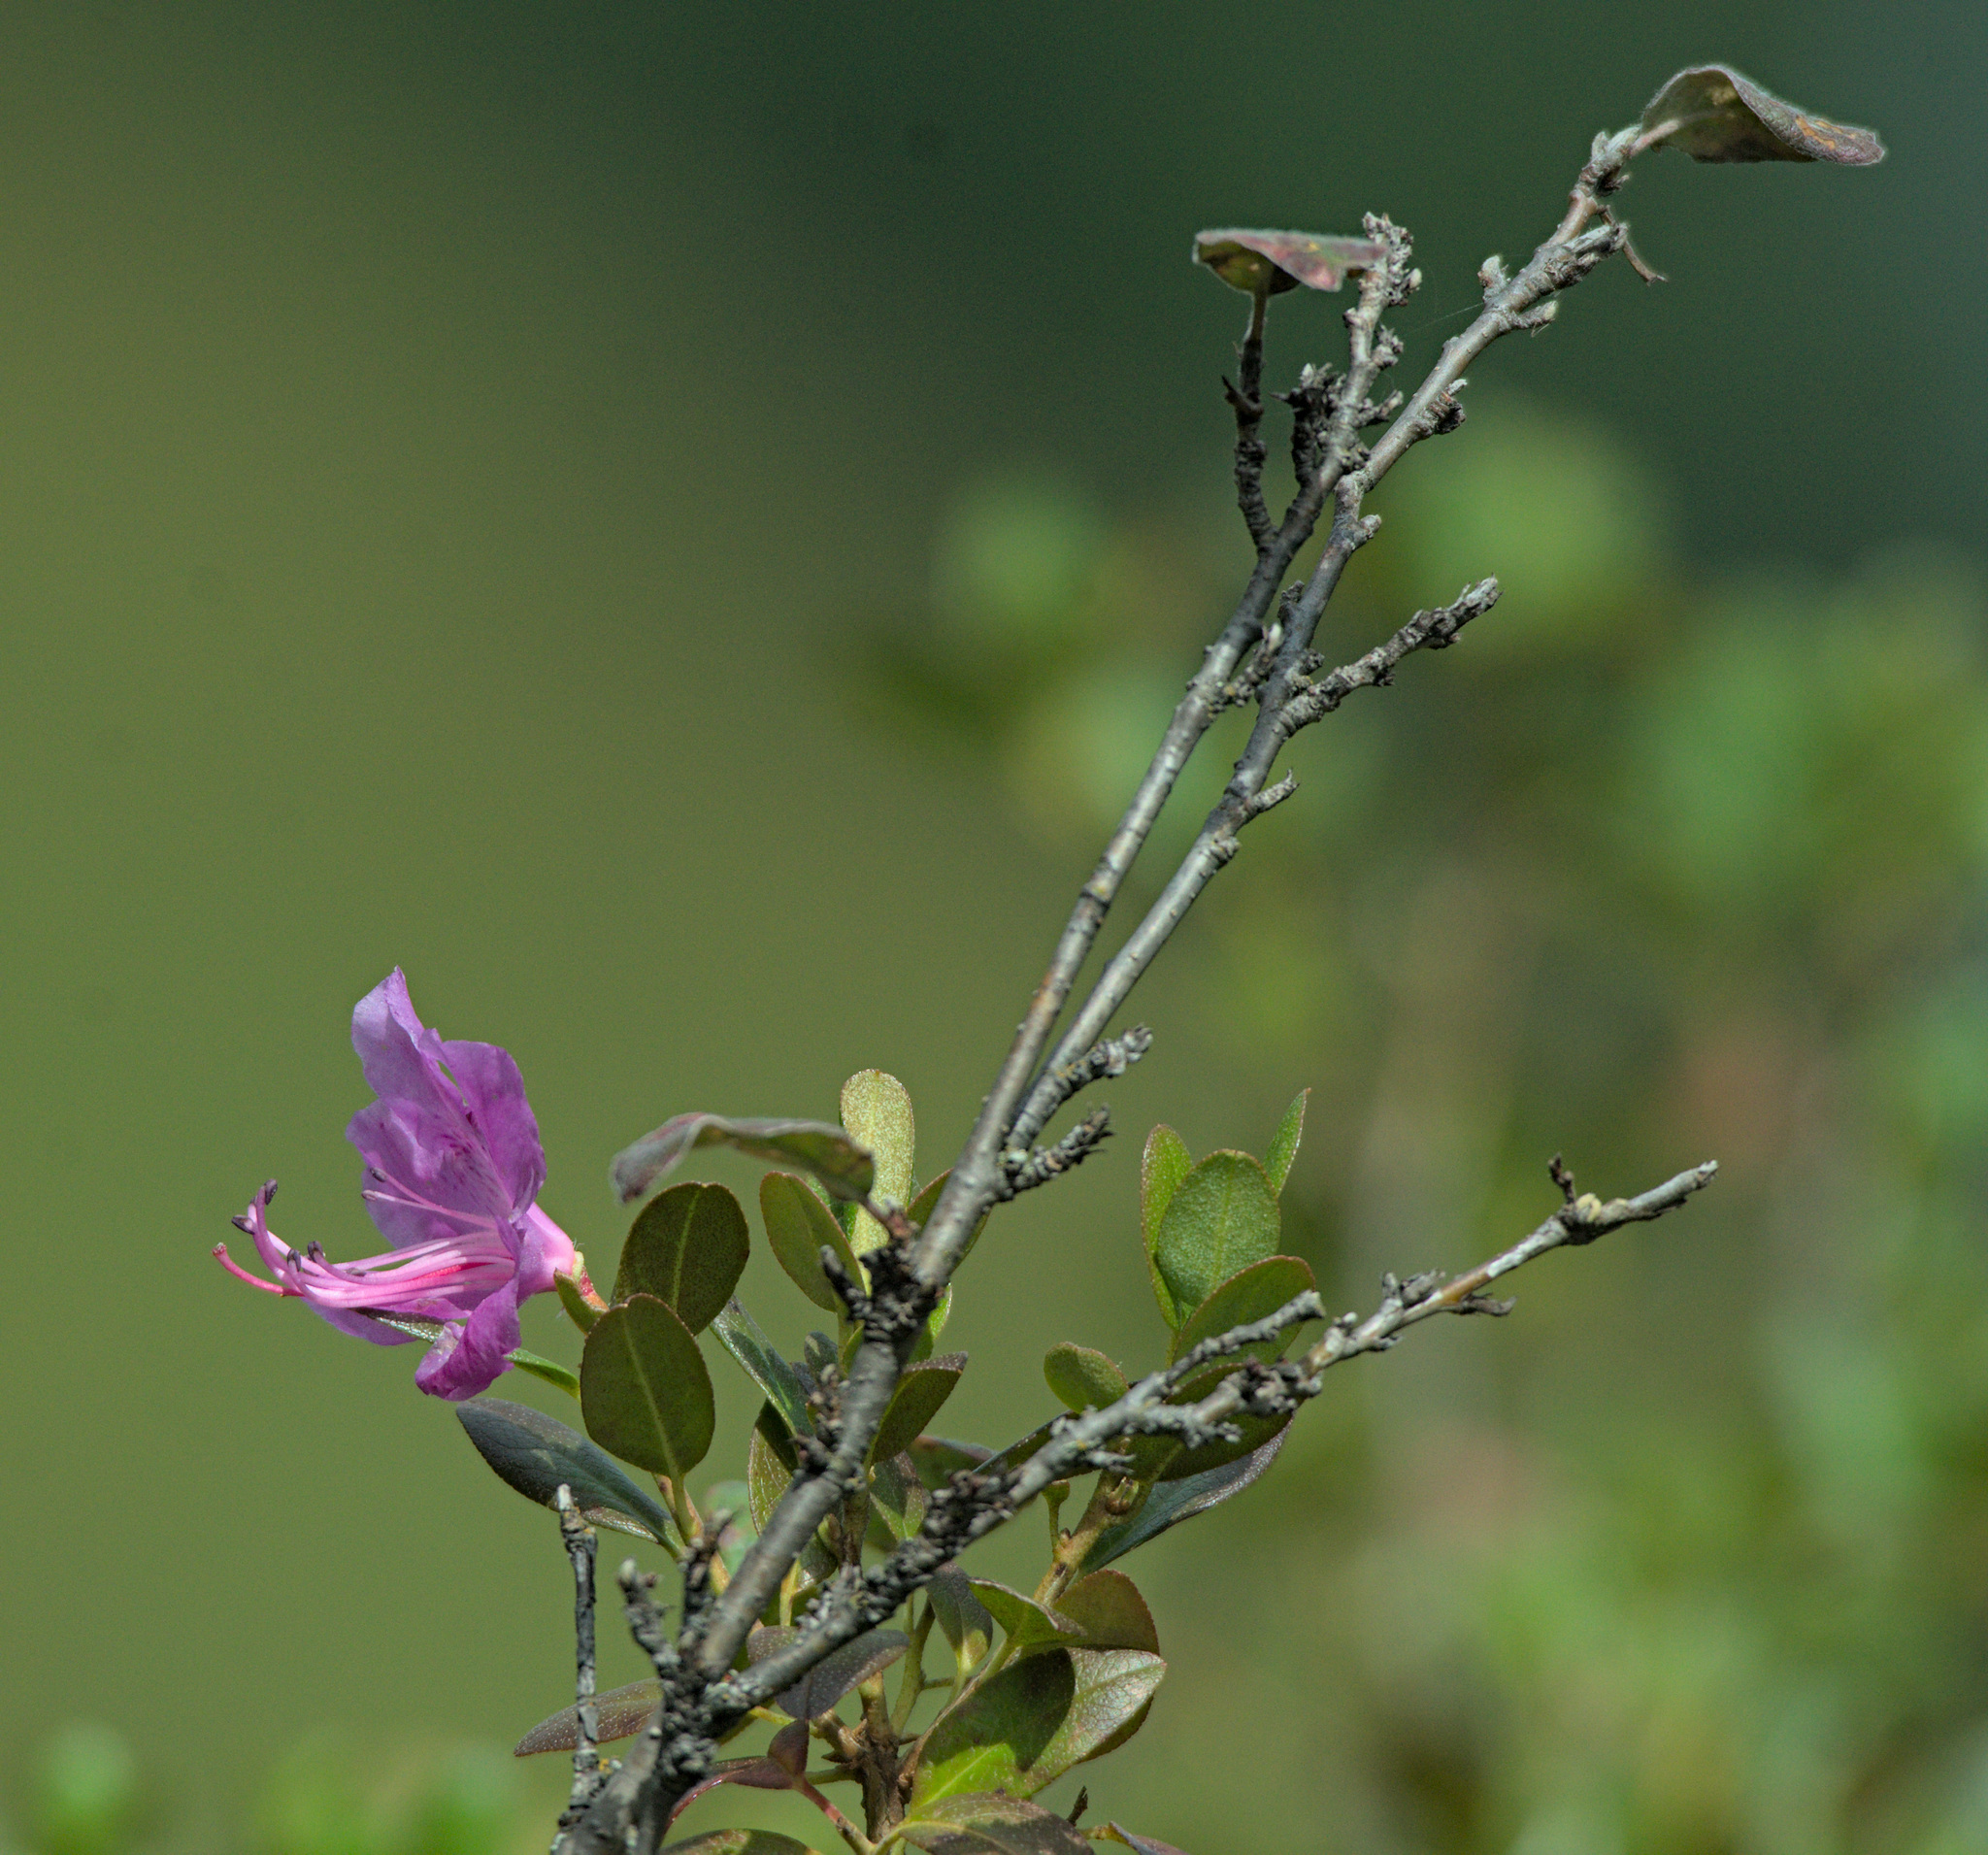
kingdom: Plantae
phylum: Tracheophyta
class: Magnoliopsida
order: Ericales
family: Ericaceae
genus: Rhododendron
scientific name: Rhododendron dauricum
